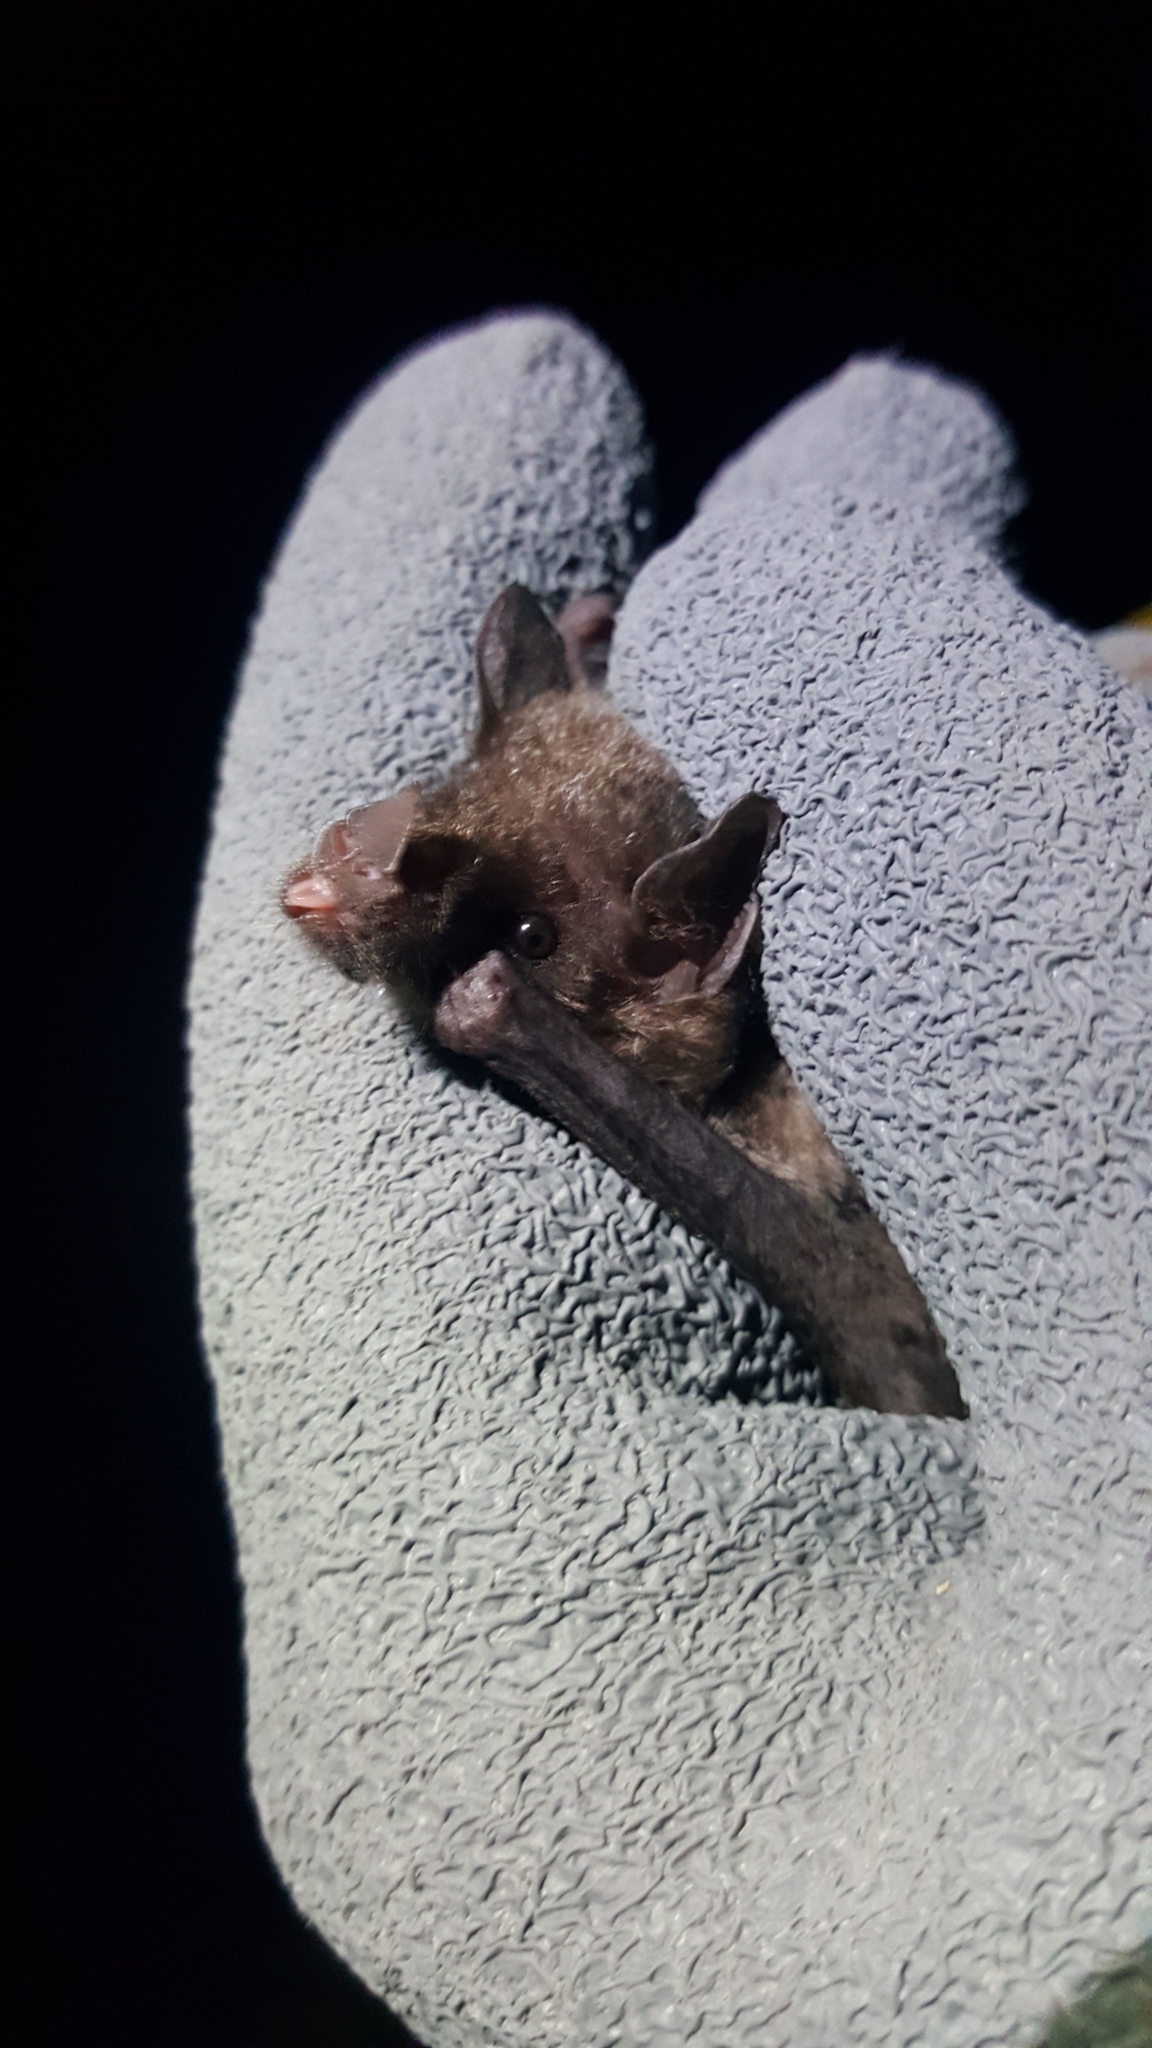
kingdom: Animalia
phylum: Chordata
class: Mammalia
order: Chiroptera
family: Phyllostomidae
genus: Glossophaga
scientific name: Glossophaga soricina
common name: Pallas's long-tongued bat
